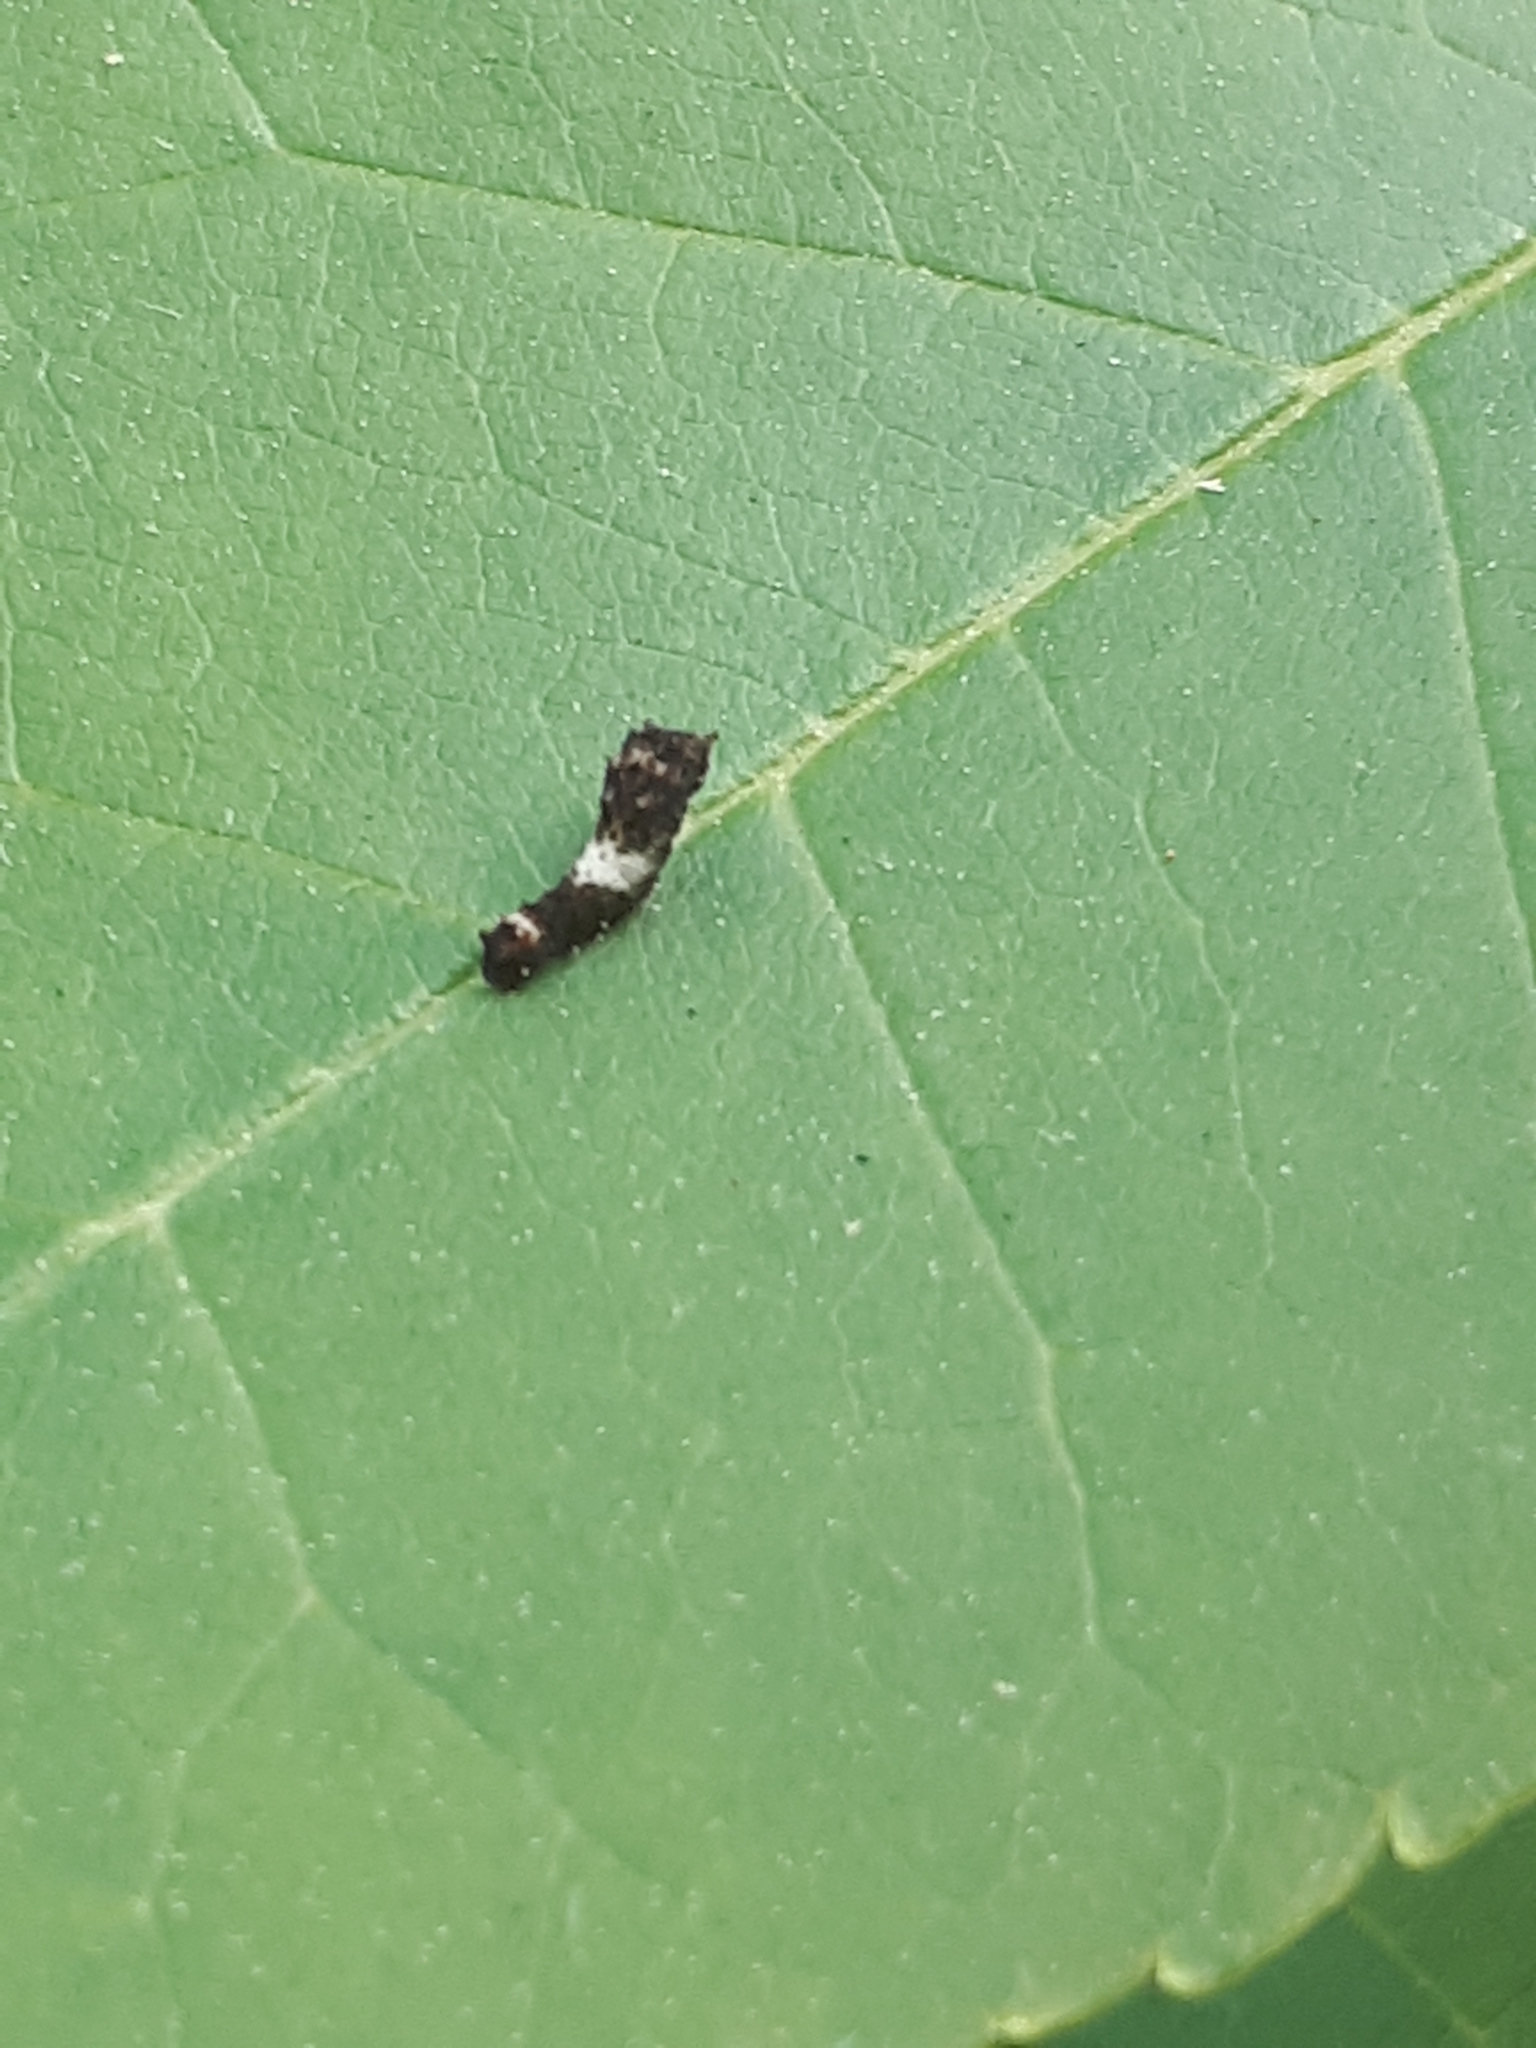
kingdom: Animalia
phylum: Arthropoda
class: Insecta
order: Lepidoptera
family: Papilionidae
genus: Pterourus
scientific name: Pterourus
